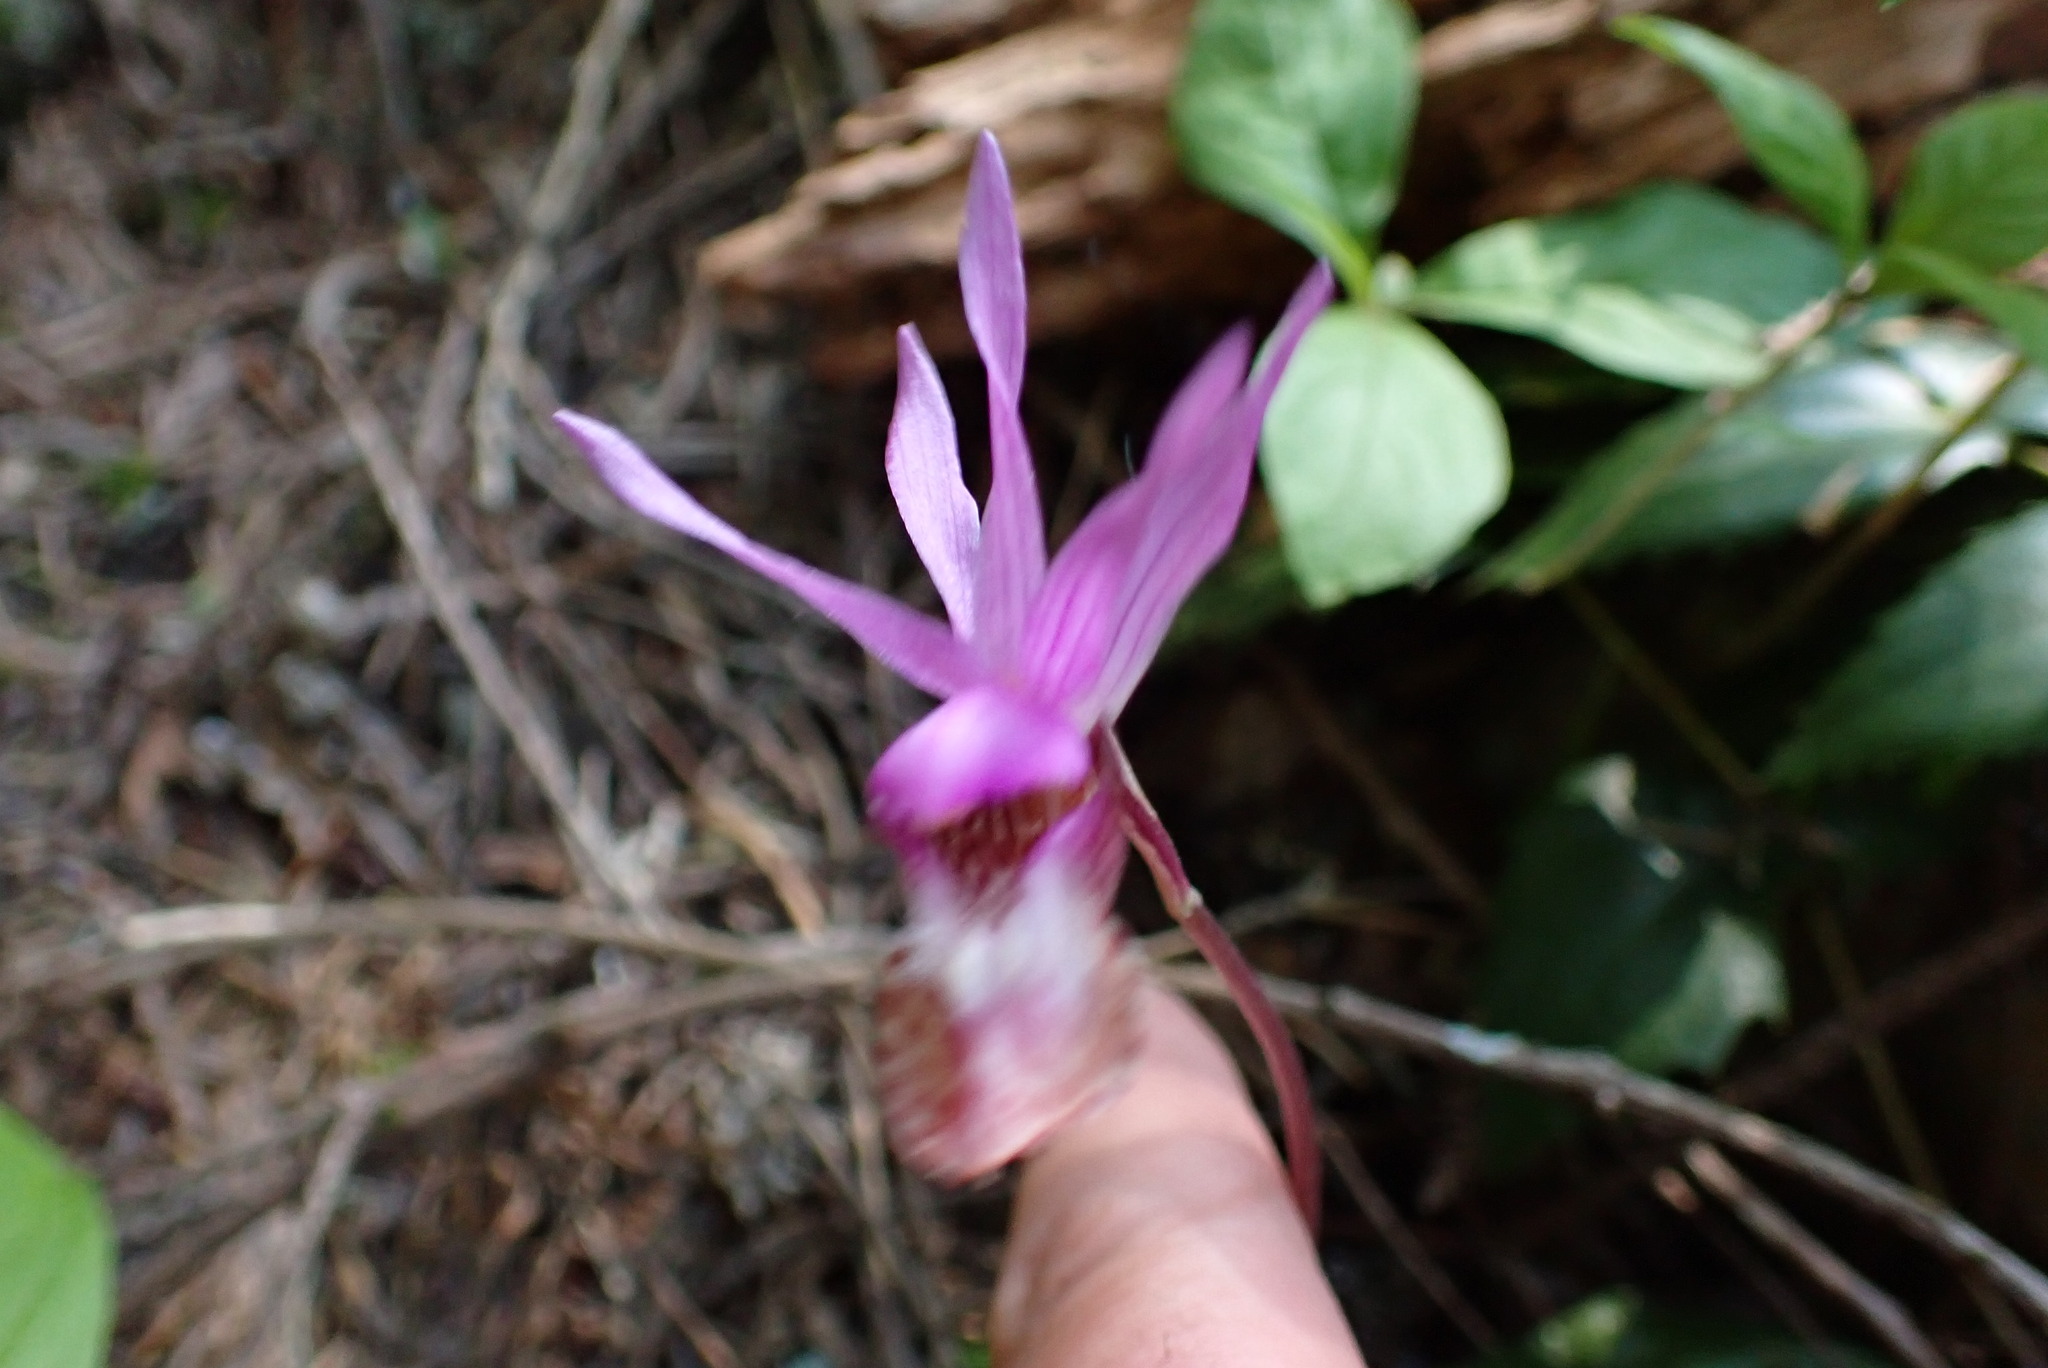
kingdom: Plantae
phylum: Tracheophyta
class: Liliopsida
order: Asparagales
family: Orchidaceae
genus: Calypso
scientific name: Calypso bulbosa
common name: Calypso
